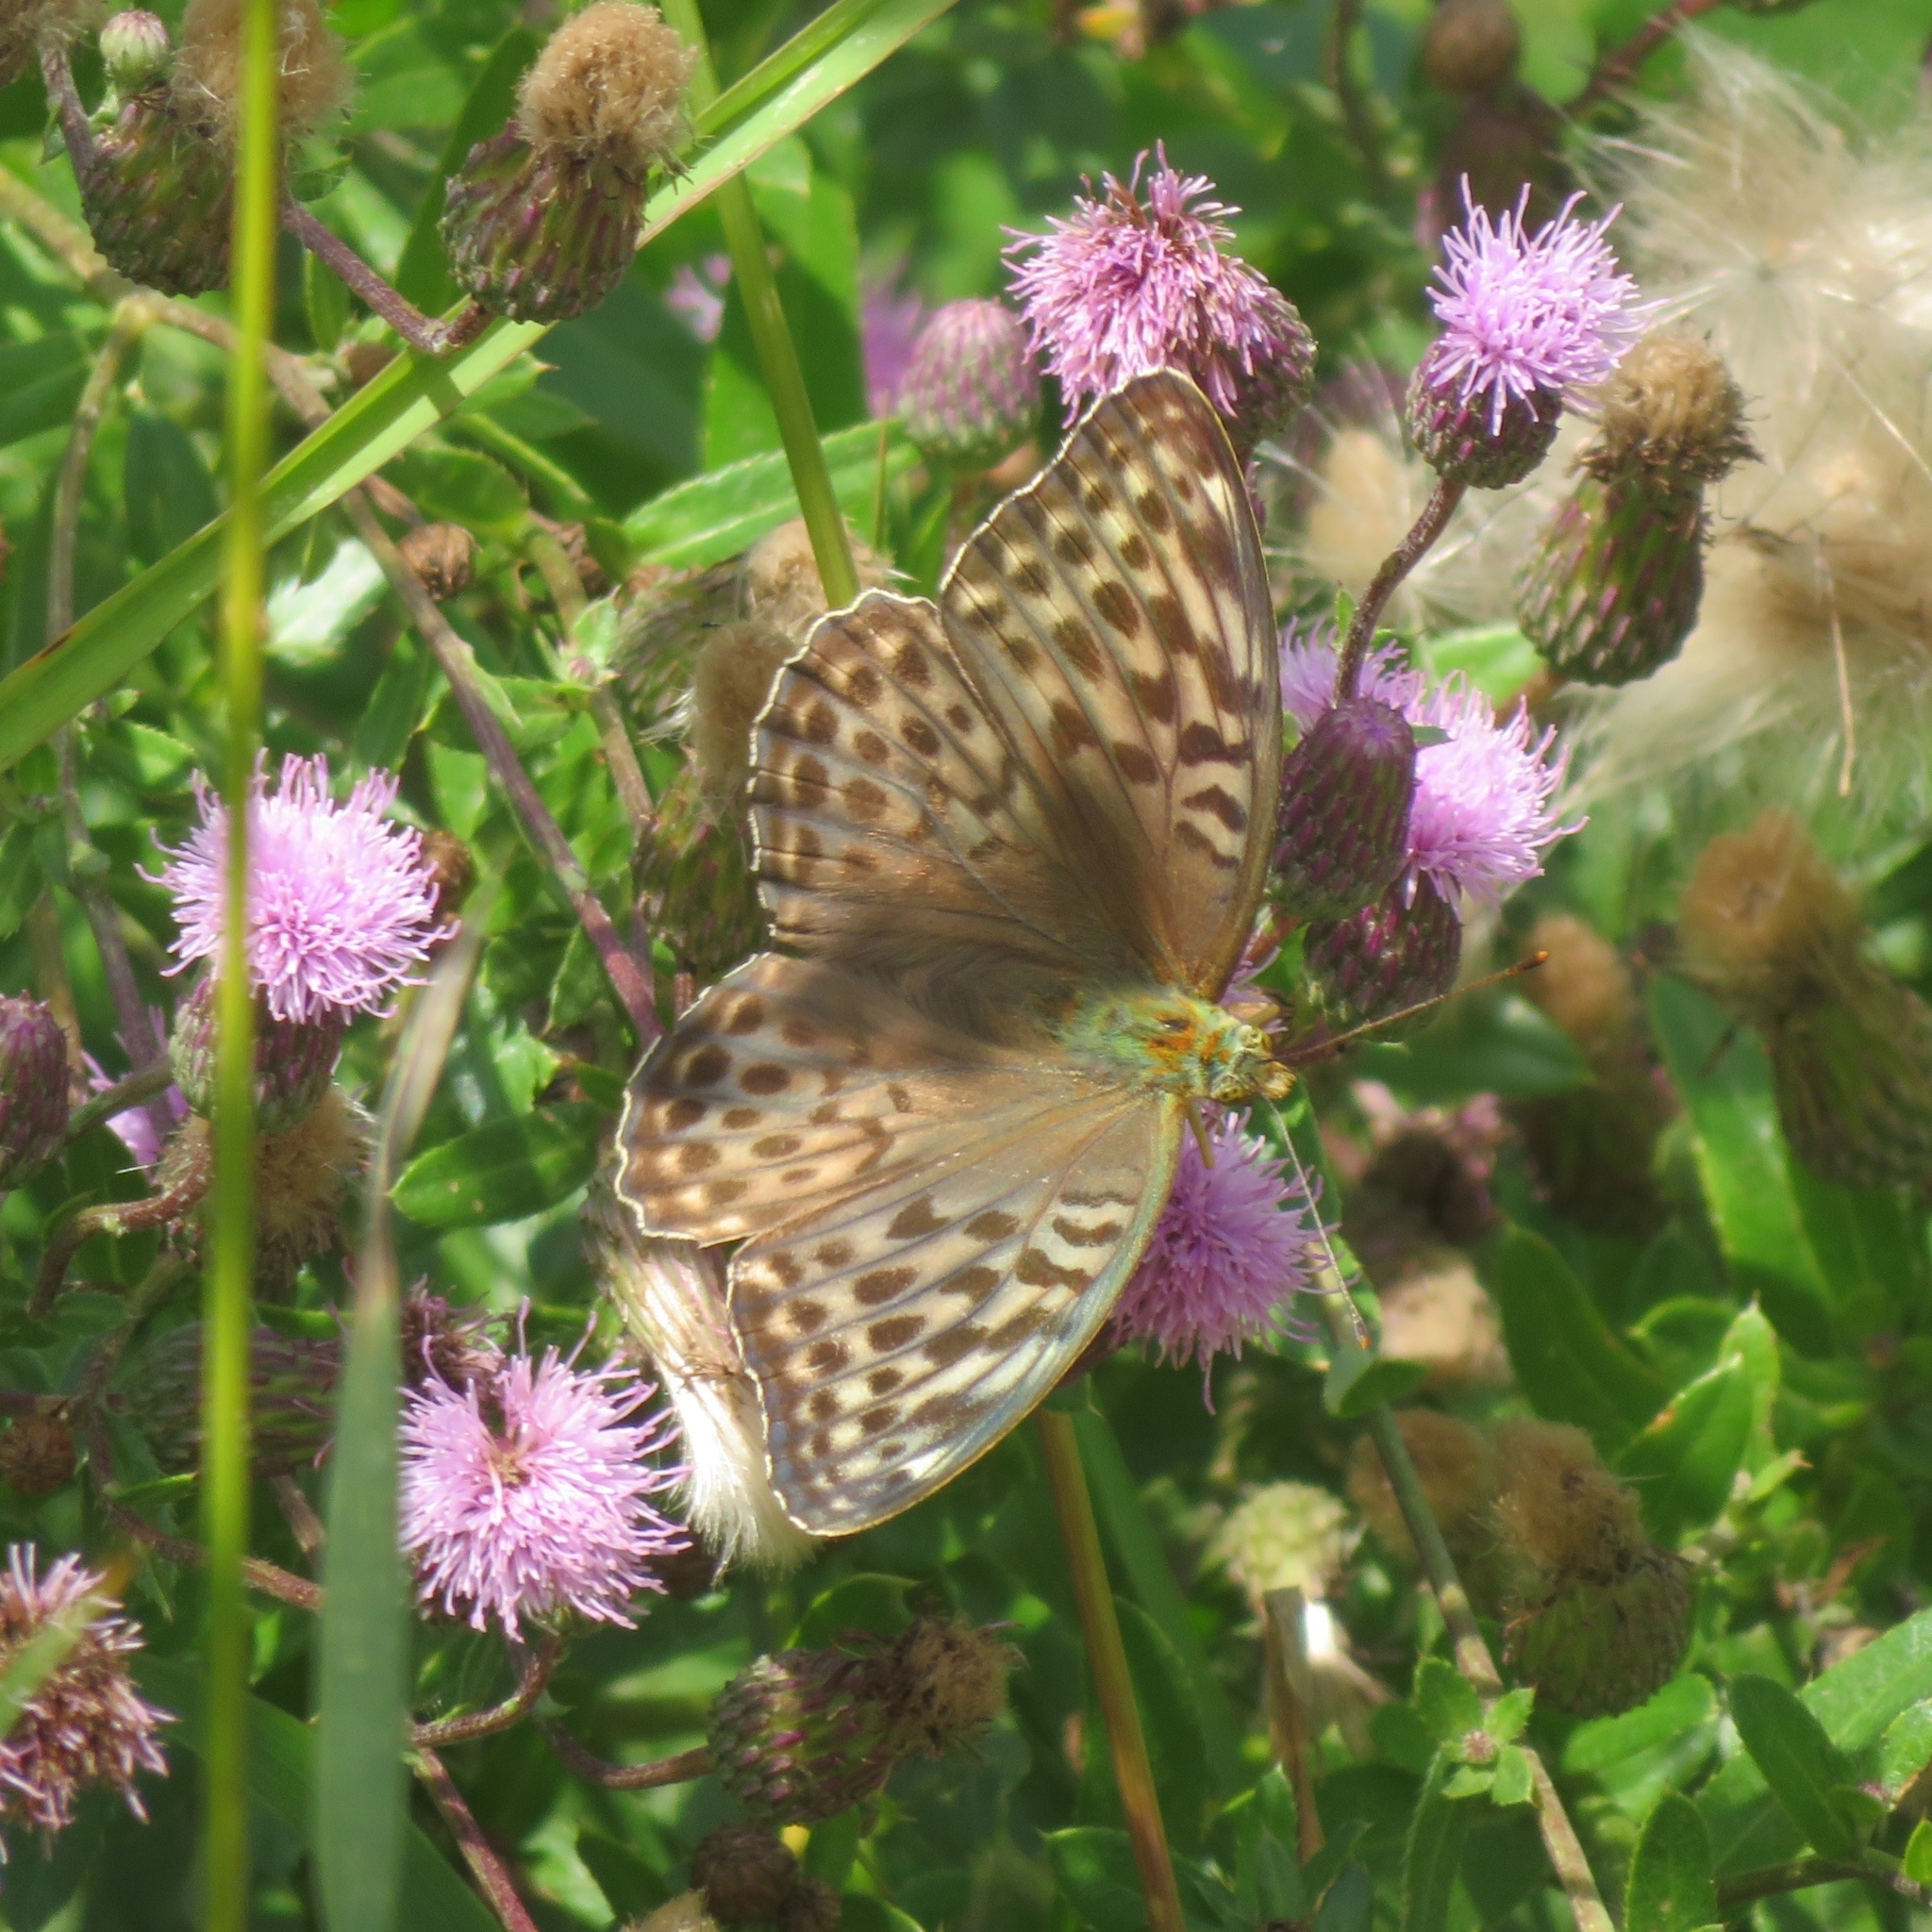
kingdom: Animalia
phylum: Arthropoda
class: Insecta
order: Lepidoptera
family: Nymphalidae
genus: Argynnis
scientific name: Argynnis paphia
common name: Silver-washed fritillary
